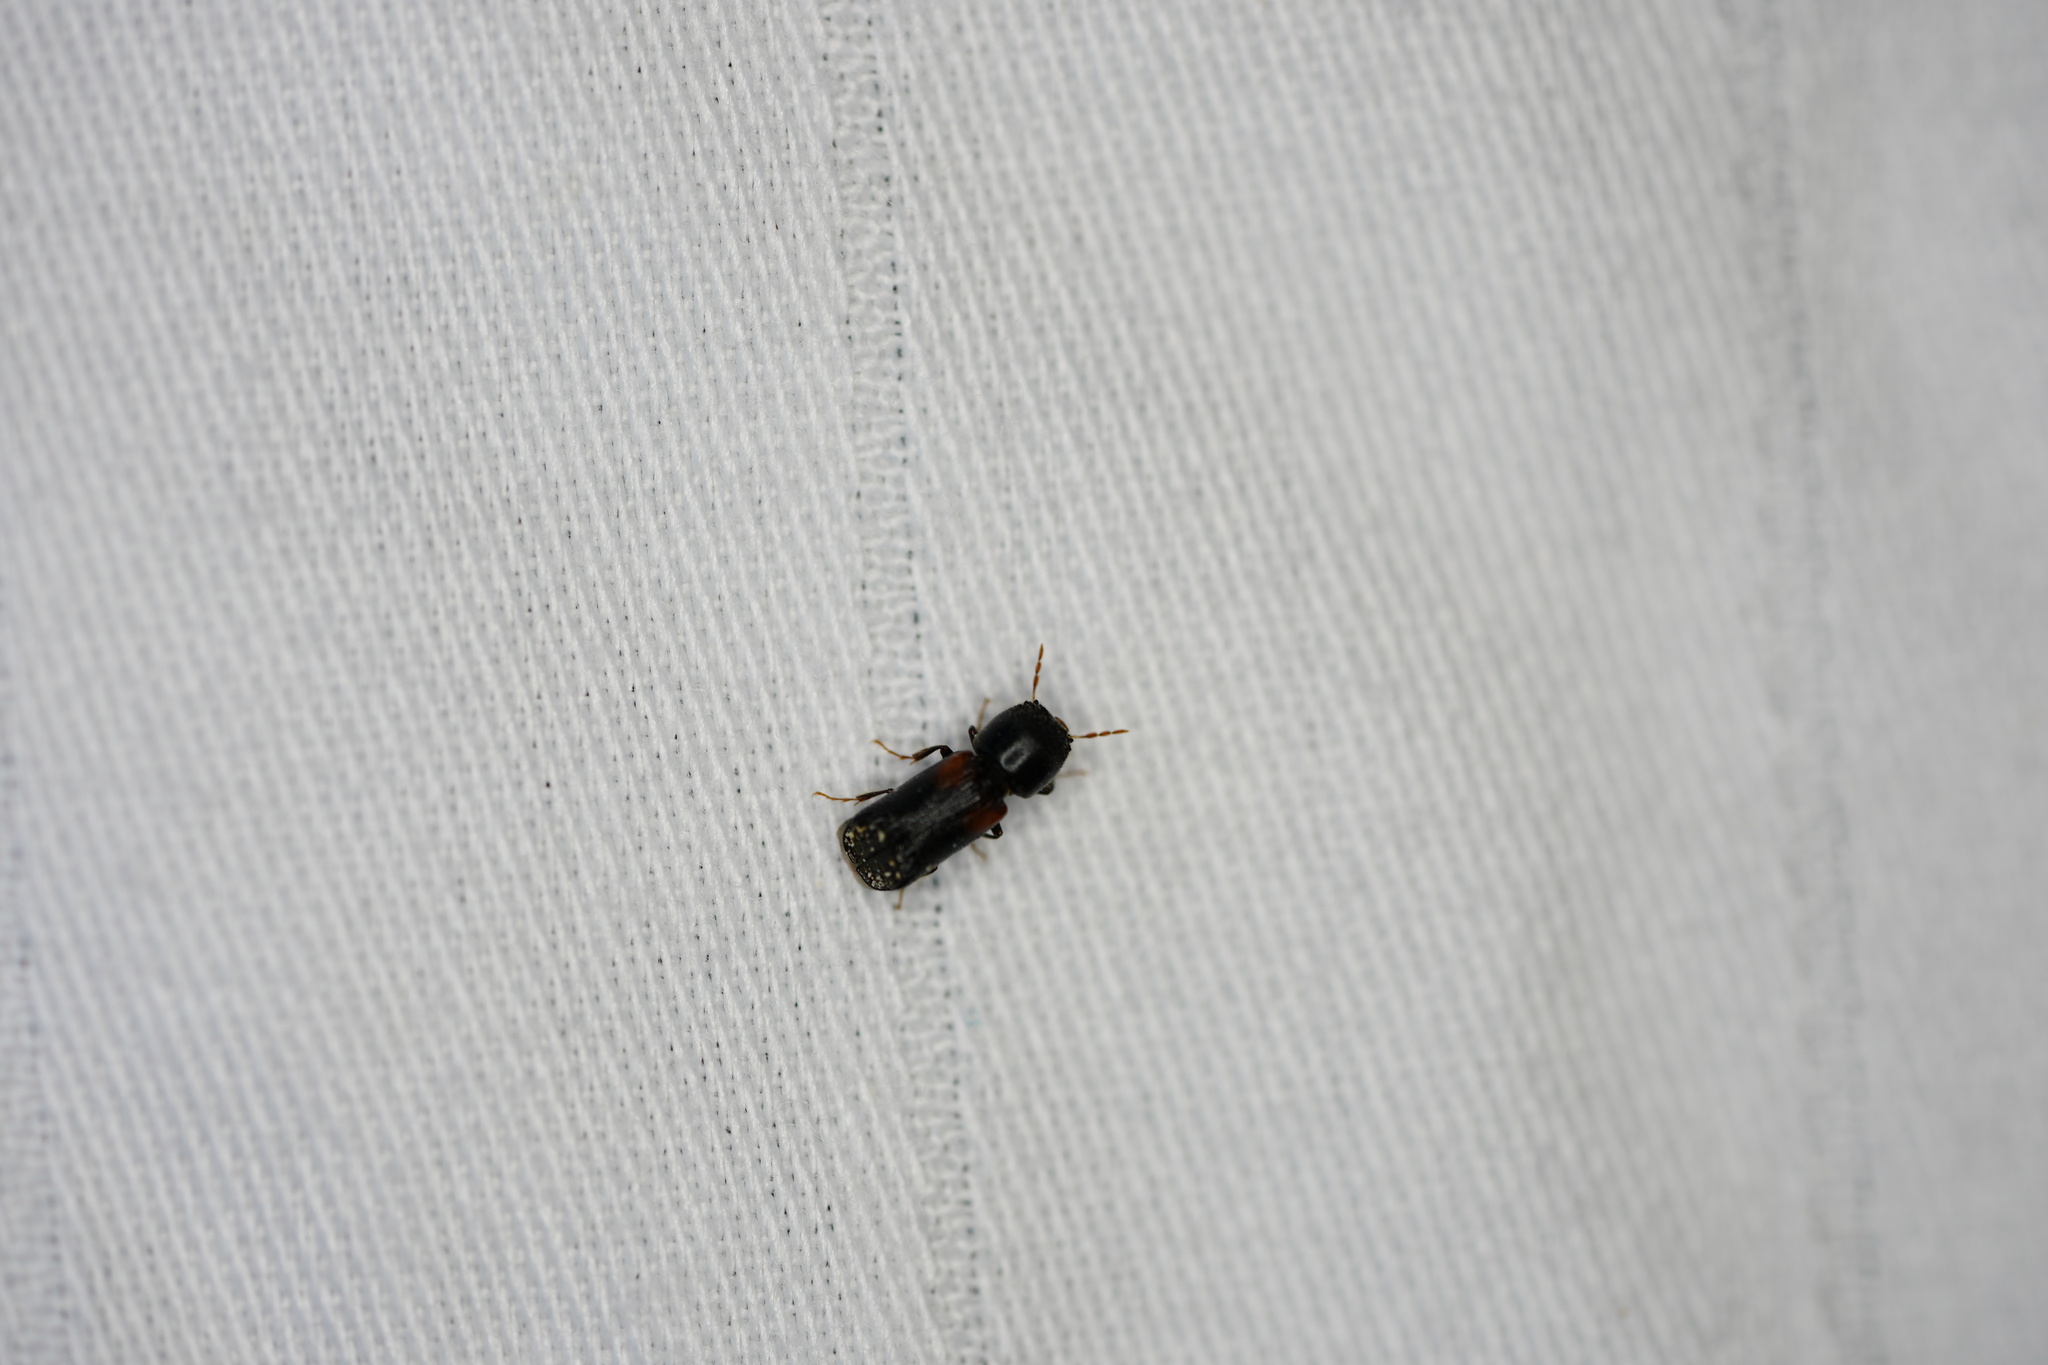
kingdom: Animalia
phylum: Arthropoda
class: Insecta
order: Coleoptera
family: Bostrichidae
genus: Xylobiops
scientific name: Xylobiops basilaris
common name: Red-shouldered bostrichid
